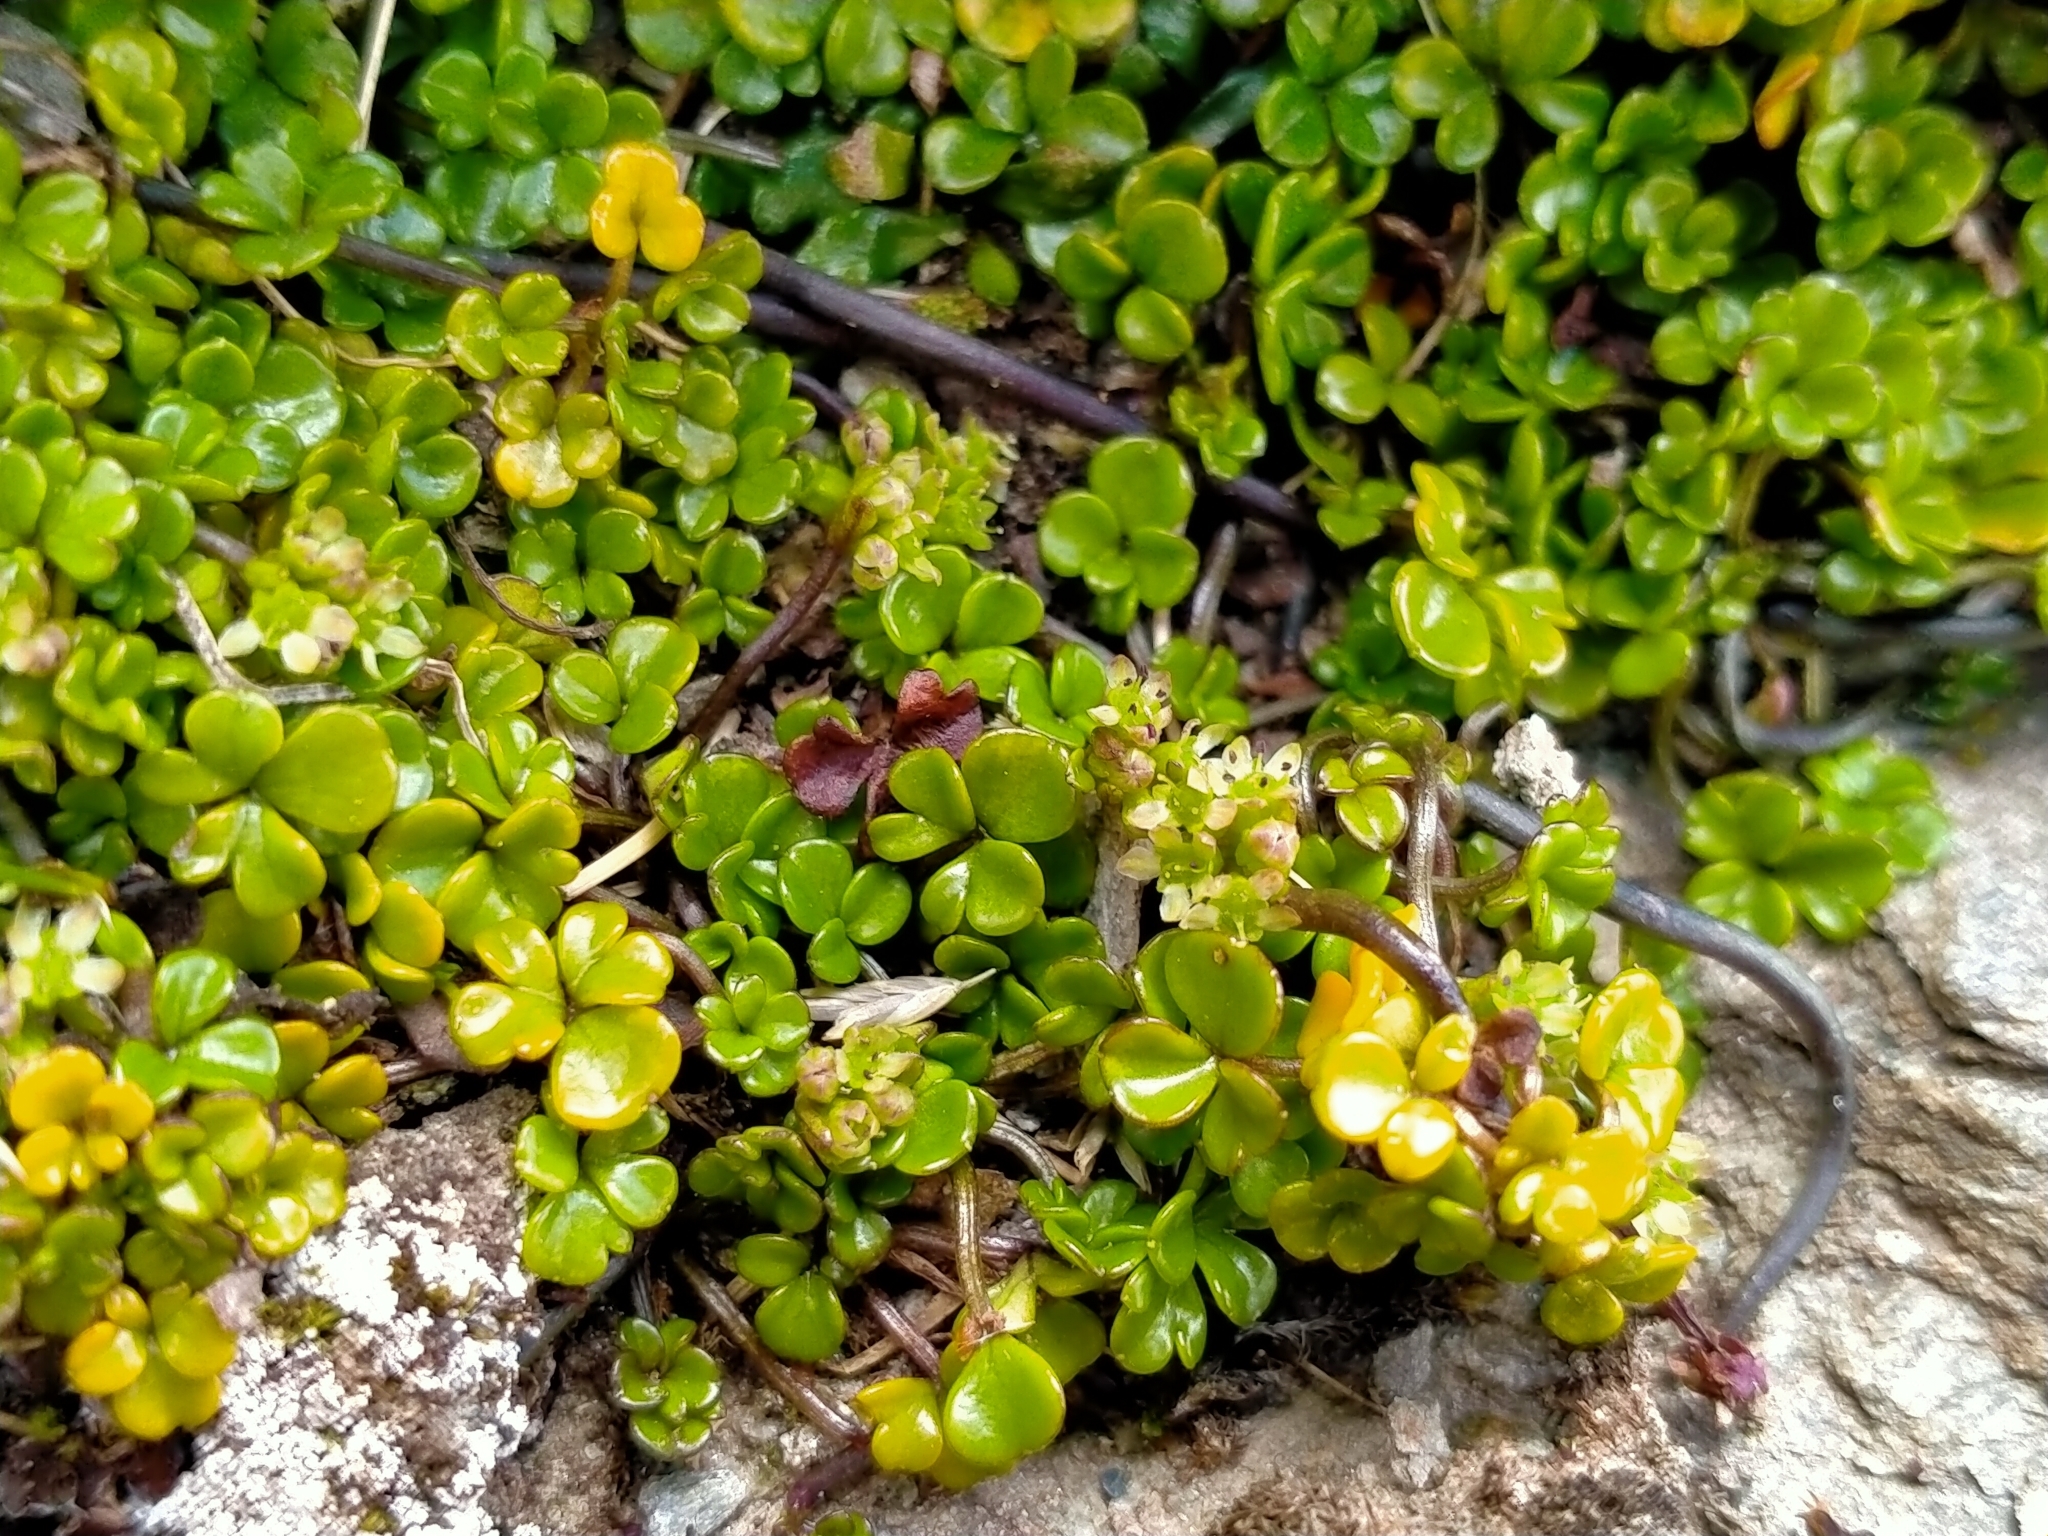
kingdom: Plantae
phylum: Tracheophyta
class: Magnoliopsida
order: Apiales
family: Apiaceae
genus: Azorella
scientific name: Azorella hydrocotyloides
